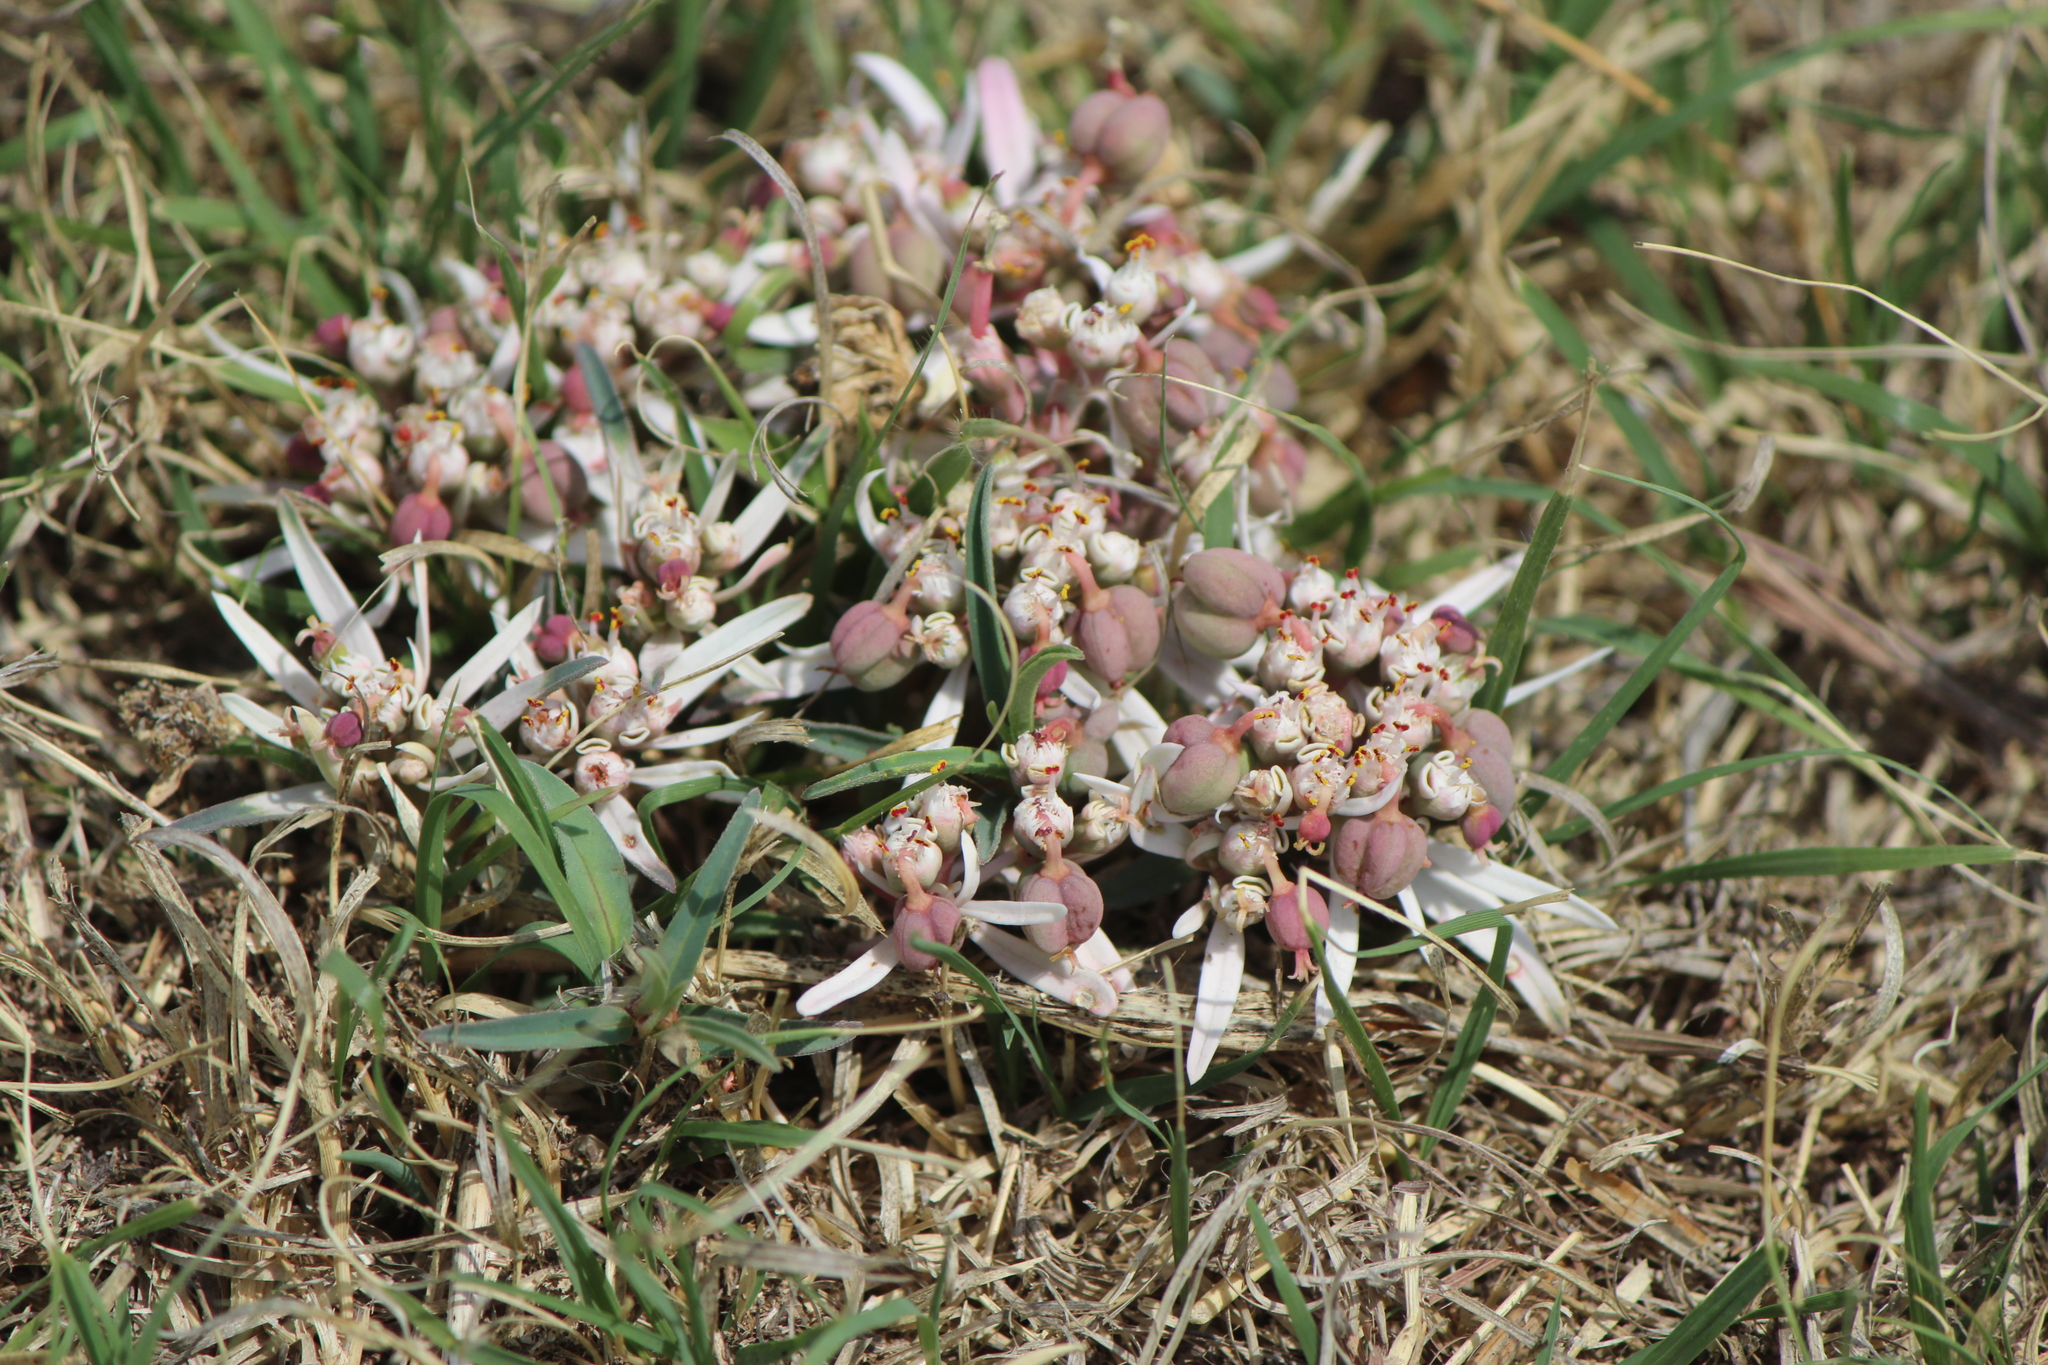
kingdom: Plantae
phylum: Tracheophyta
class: Magnoliopsida
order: Malpighiales
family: Euphorbiaceae
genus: Euphorbia
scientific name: Euphorbia radians
